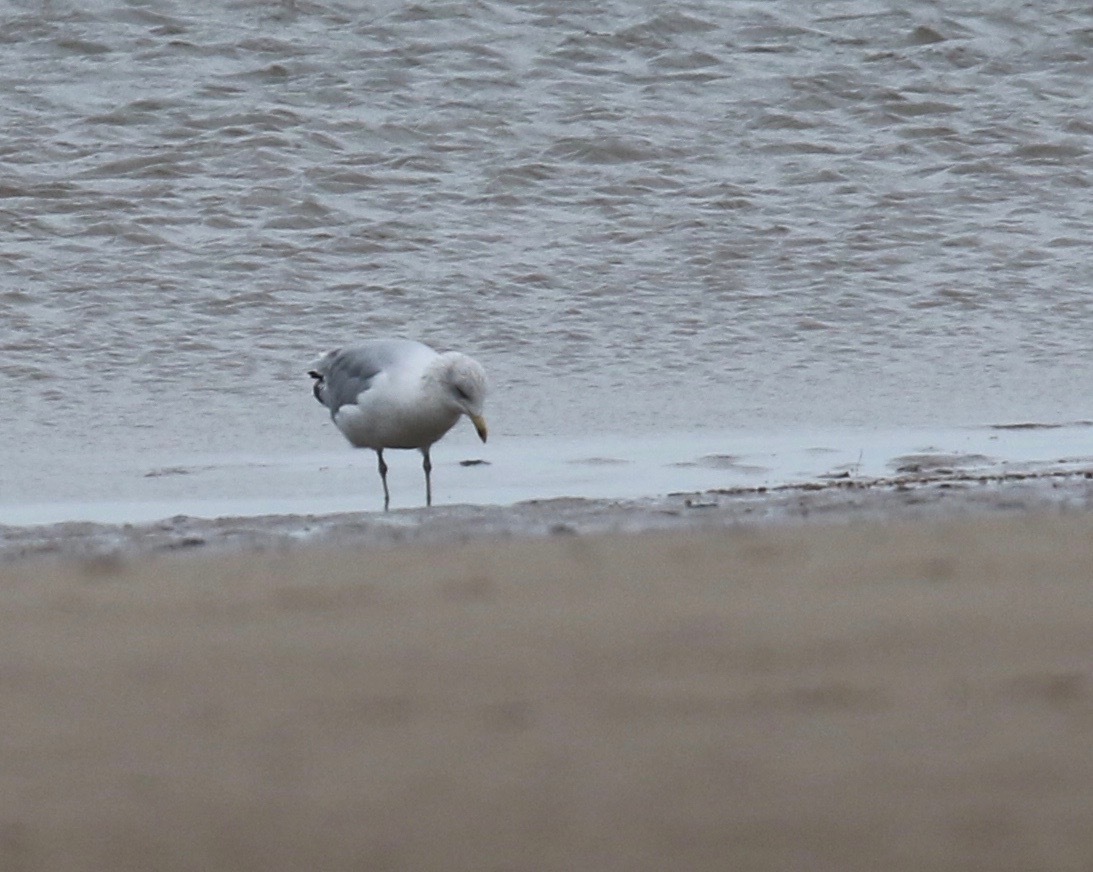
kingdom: Animalia
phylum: Chordata
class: Aves
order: Charadriiformes
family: Laridae
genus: Larus
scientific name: Larus argentatus
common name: Herring gull
